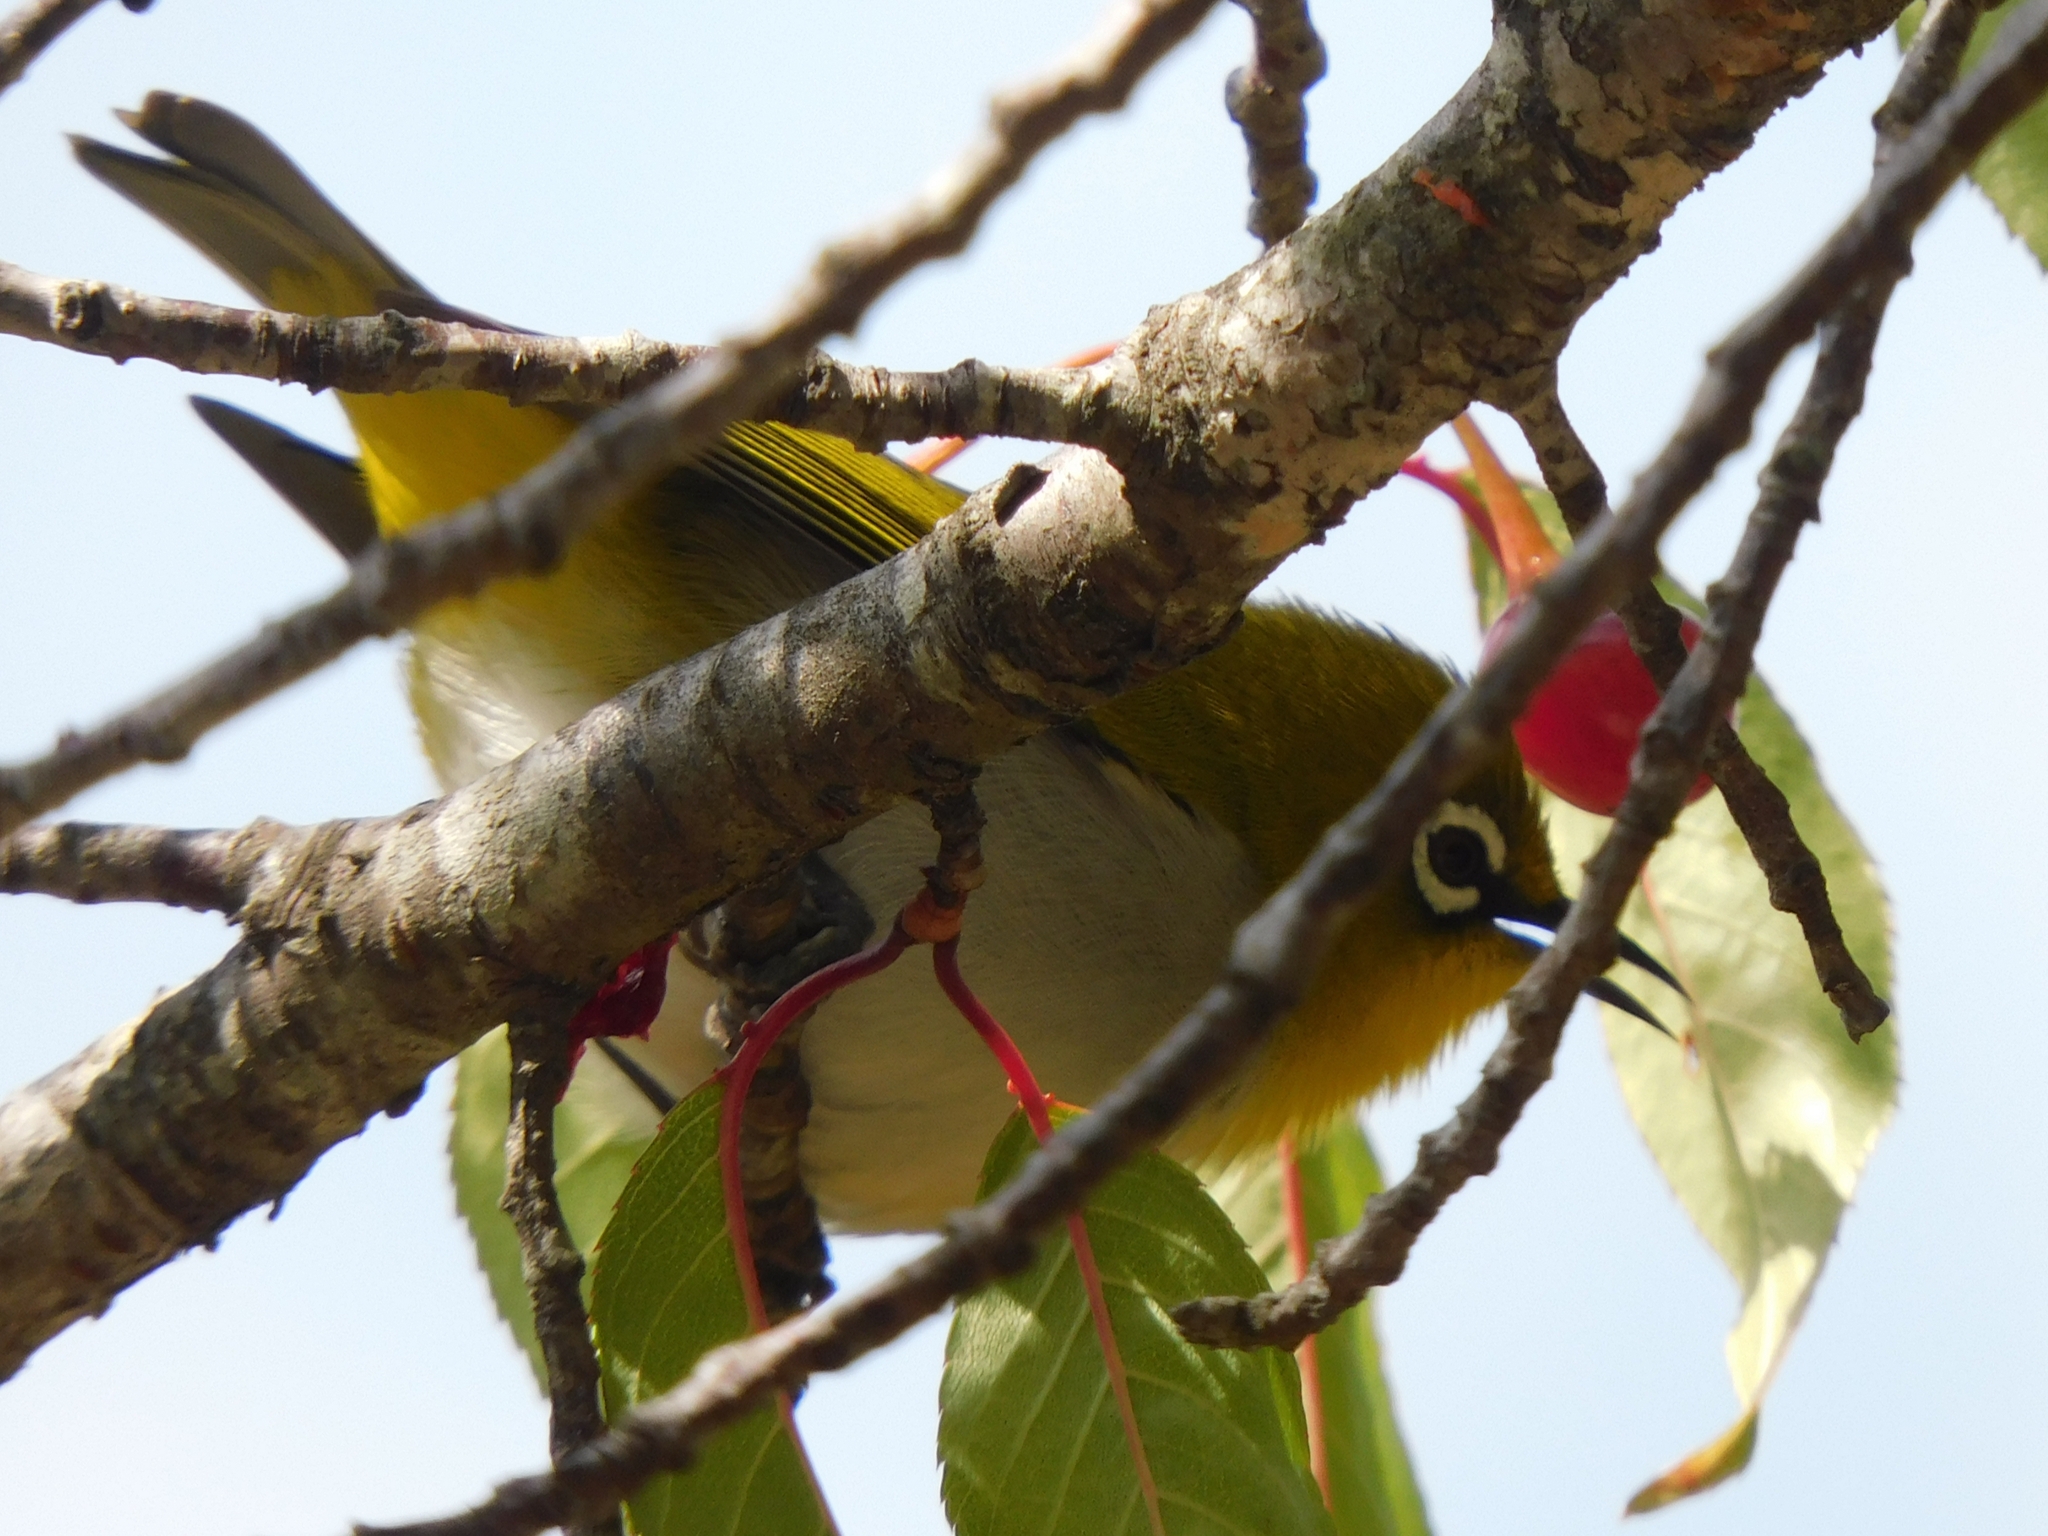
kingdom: Animalia
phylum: Chordata
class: Aves
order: Passeriformes
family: Zosteropidae
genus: Zosterops
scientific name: Zosterops palpebrosus
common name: Oriental white-eye
